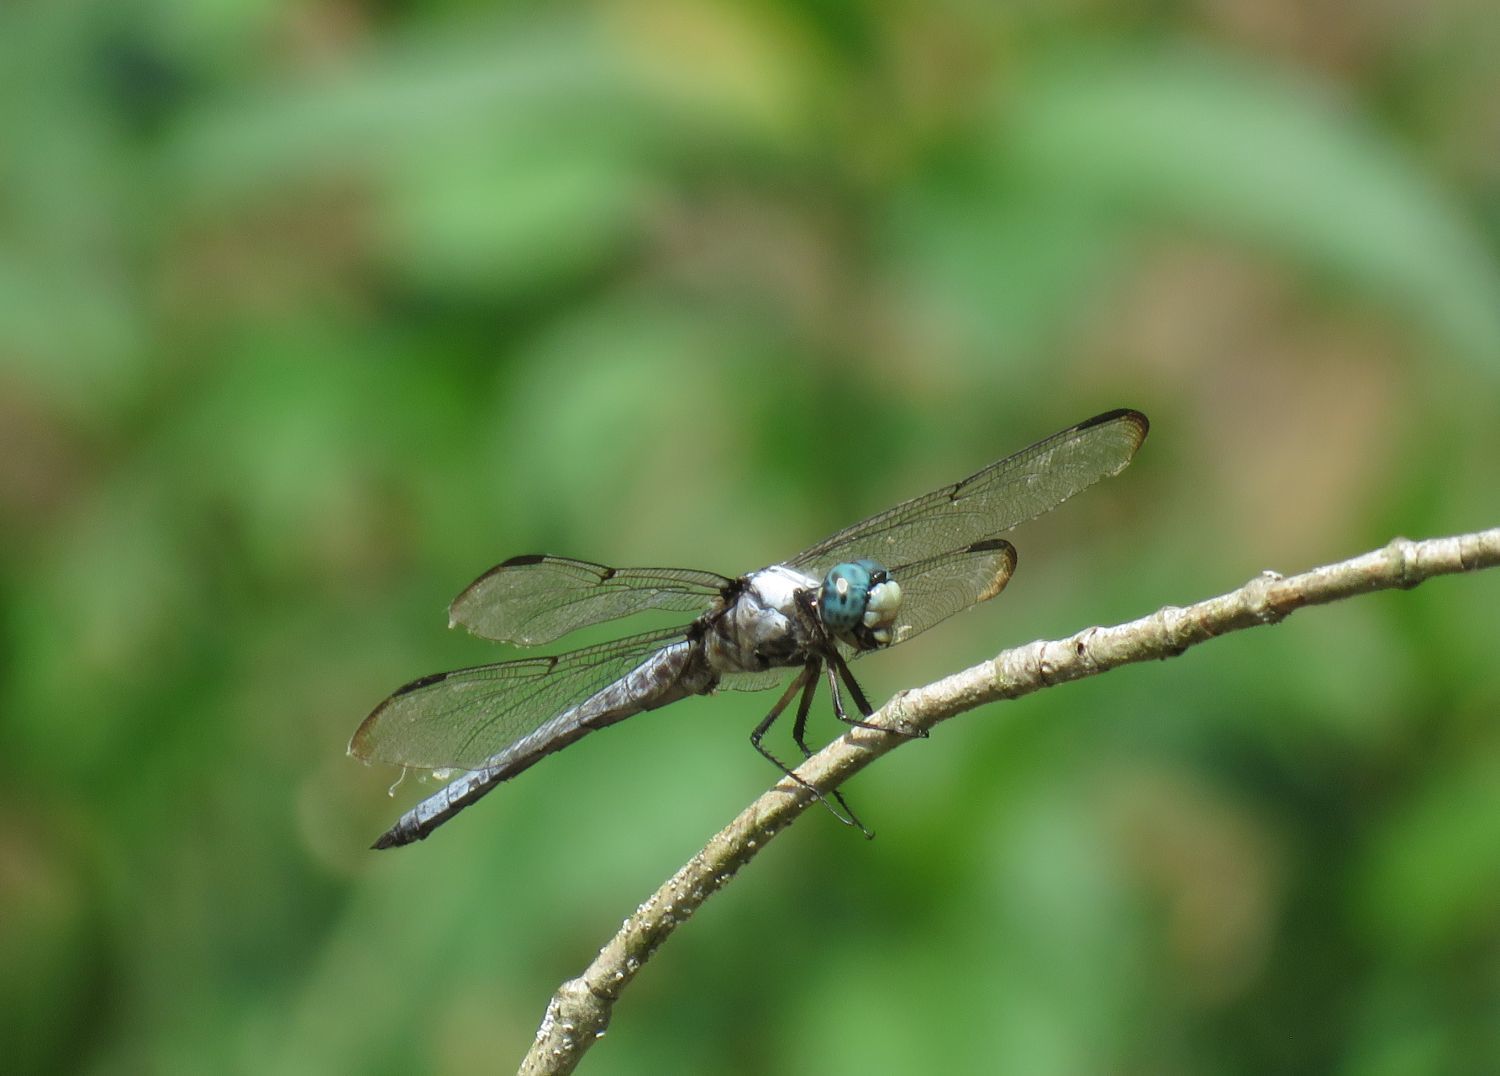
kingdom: Animalia
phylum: Arthropoda
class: Insecta
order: Odonata
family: Libellulidae
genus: Libellula
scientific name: Libellula vibrans
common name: Great blue skimmer
